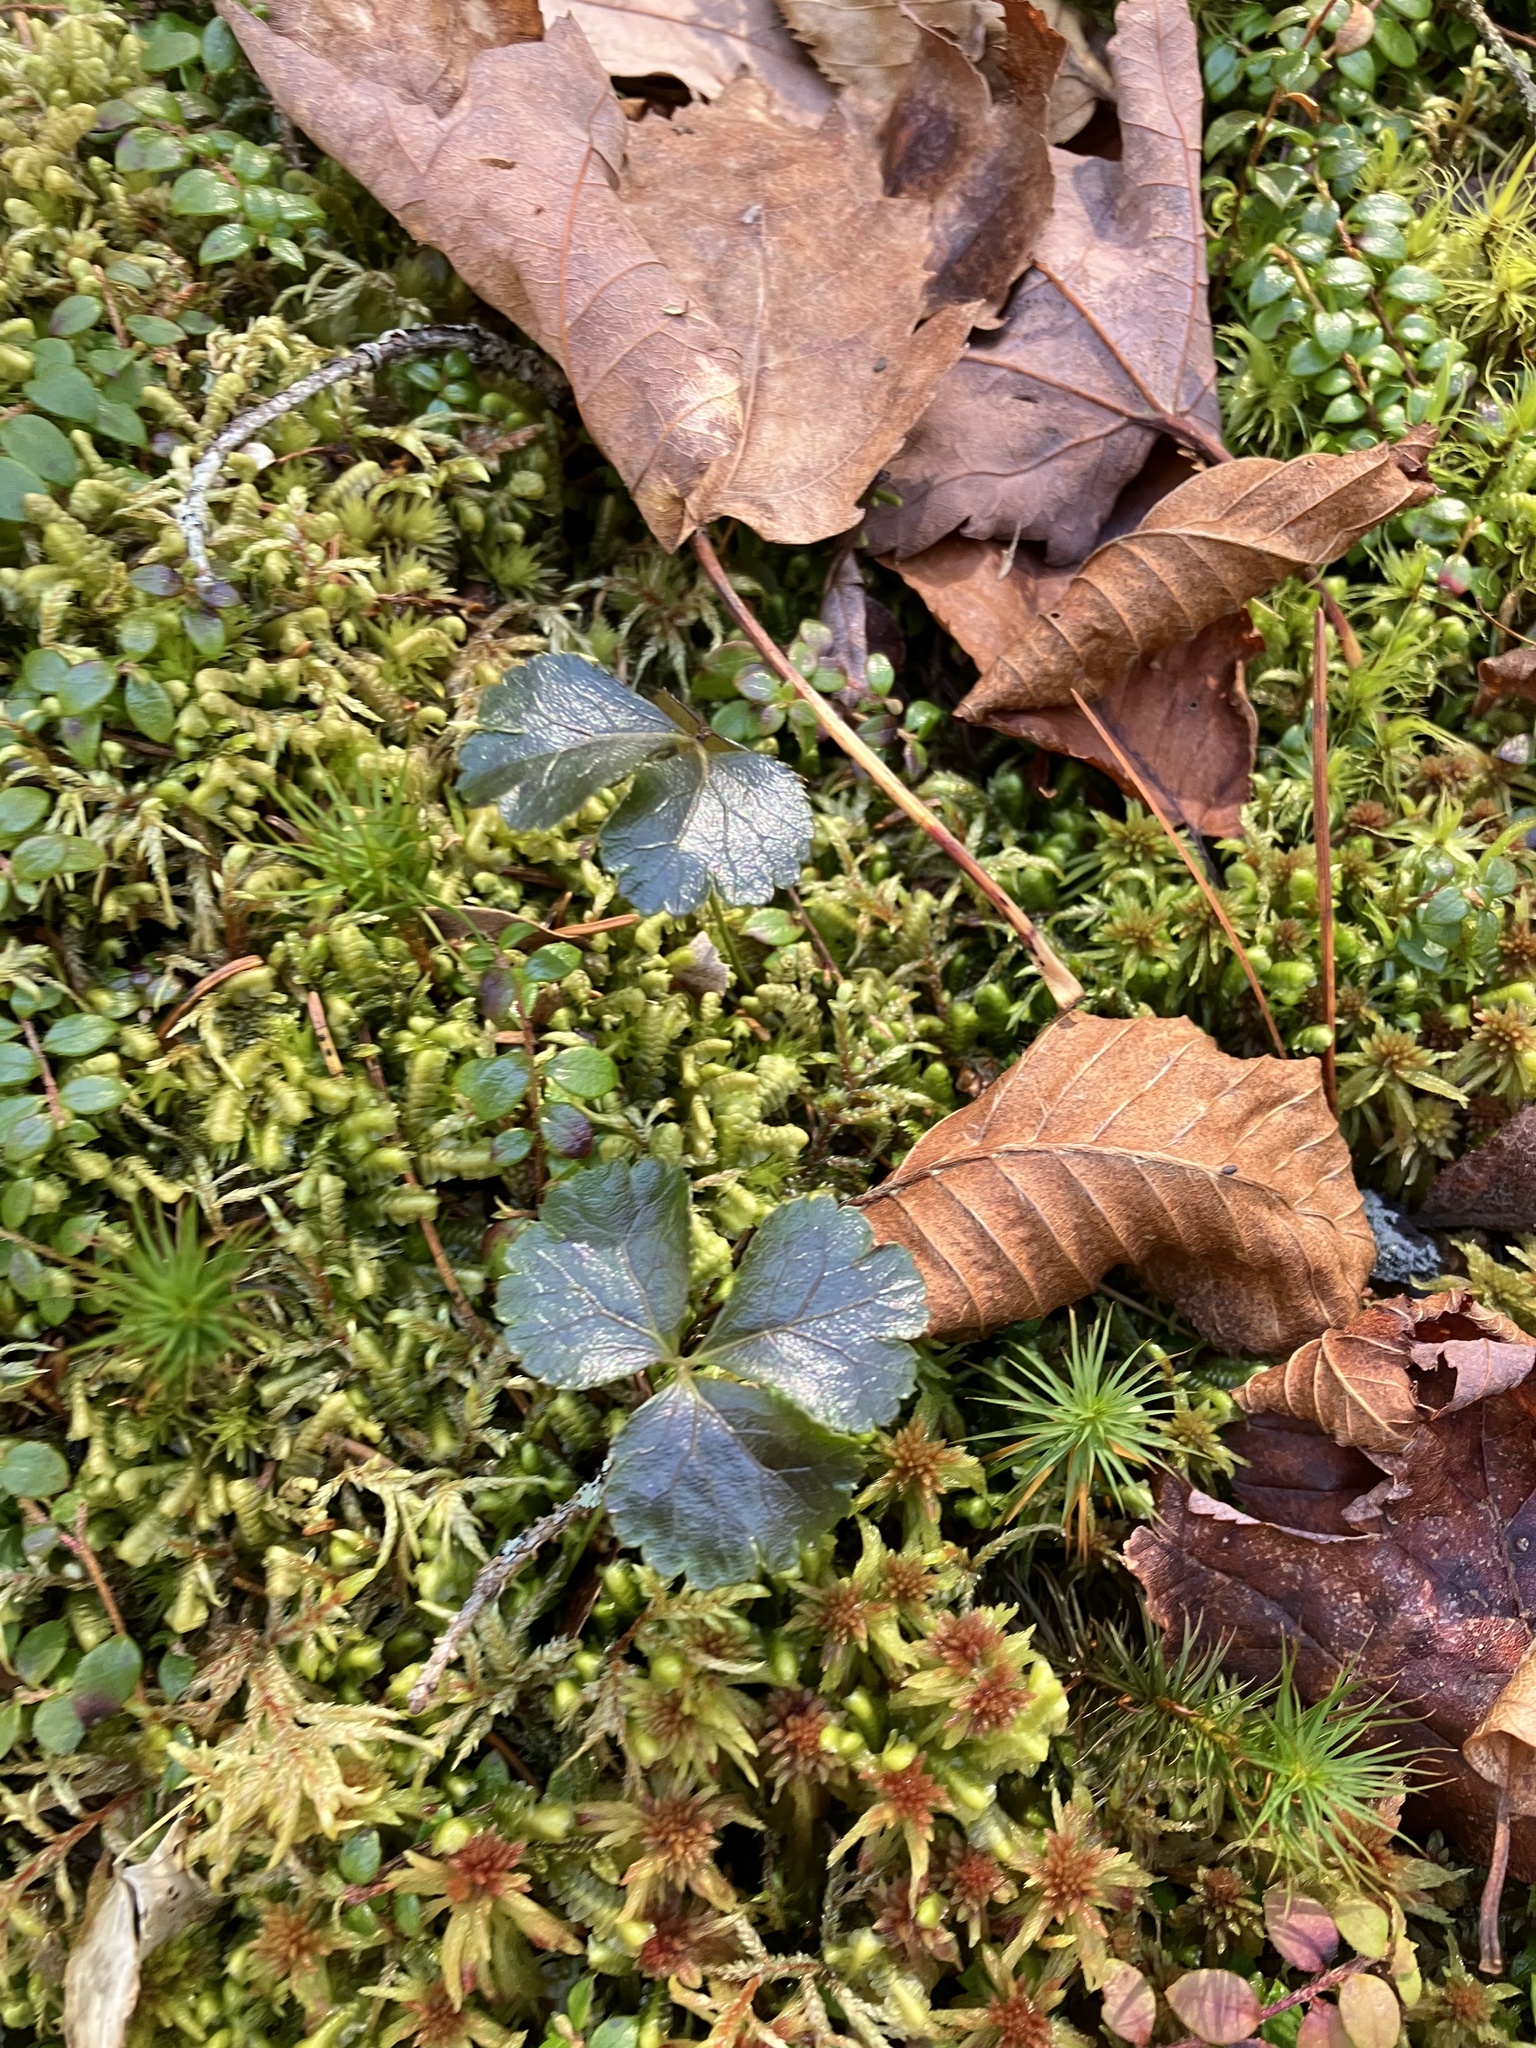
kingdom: Plantae
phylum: Tracheophyta
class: Magnoliopsida
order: Ranunculales
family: Ranunculaceae
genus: Coptis
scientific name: Coptis trifolia
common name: Canker-root
